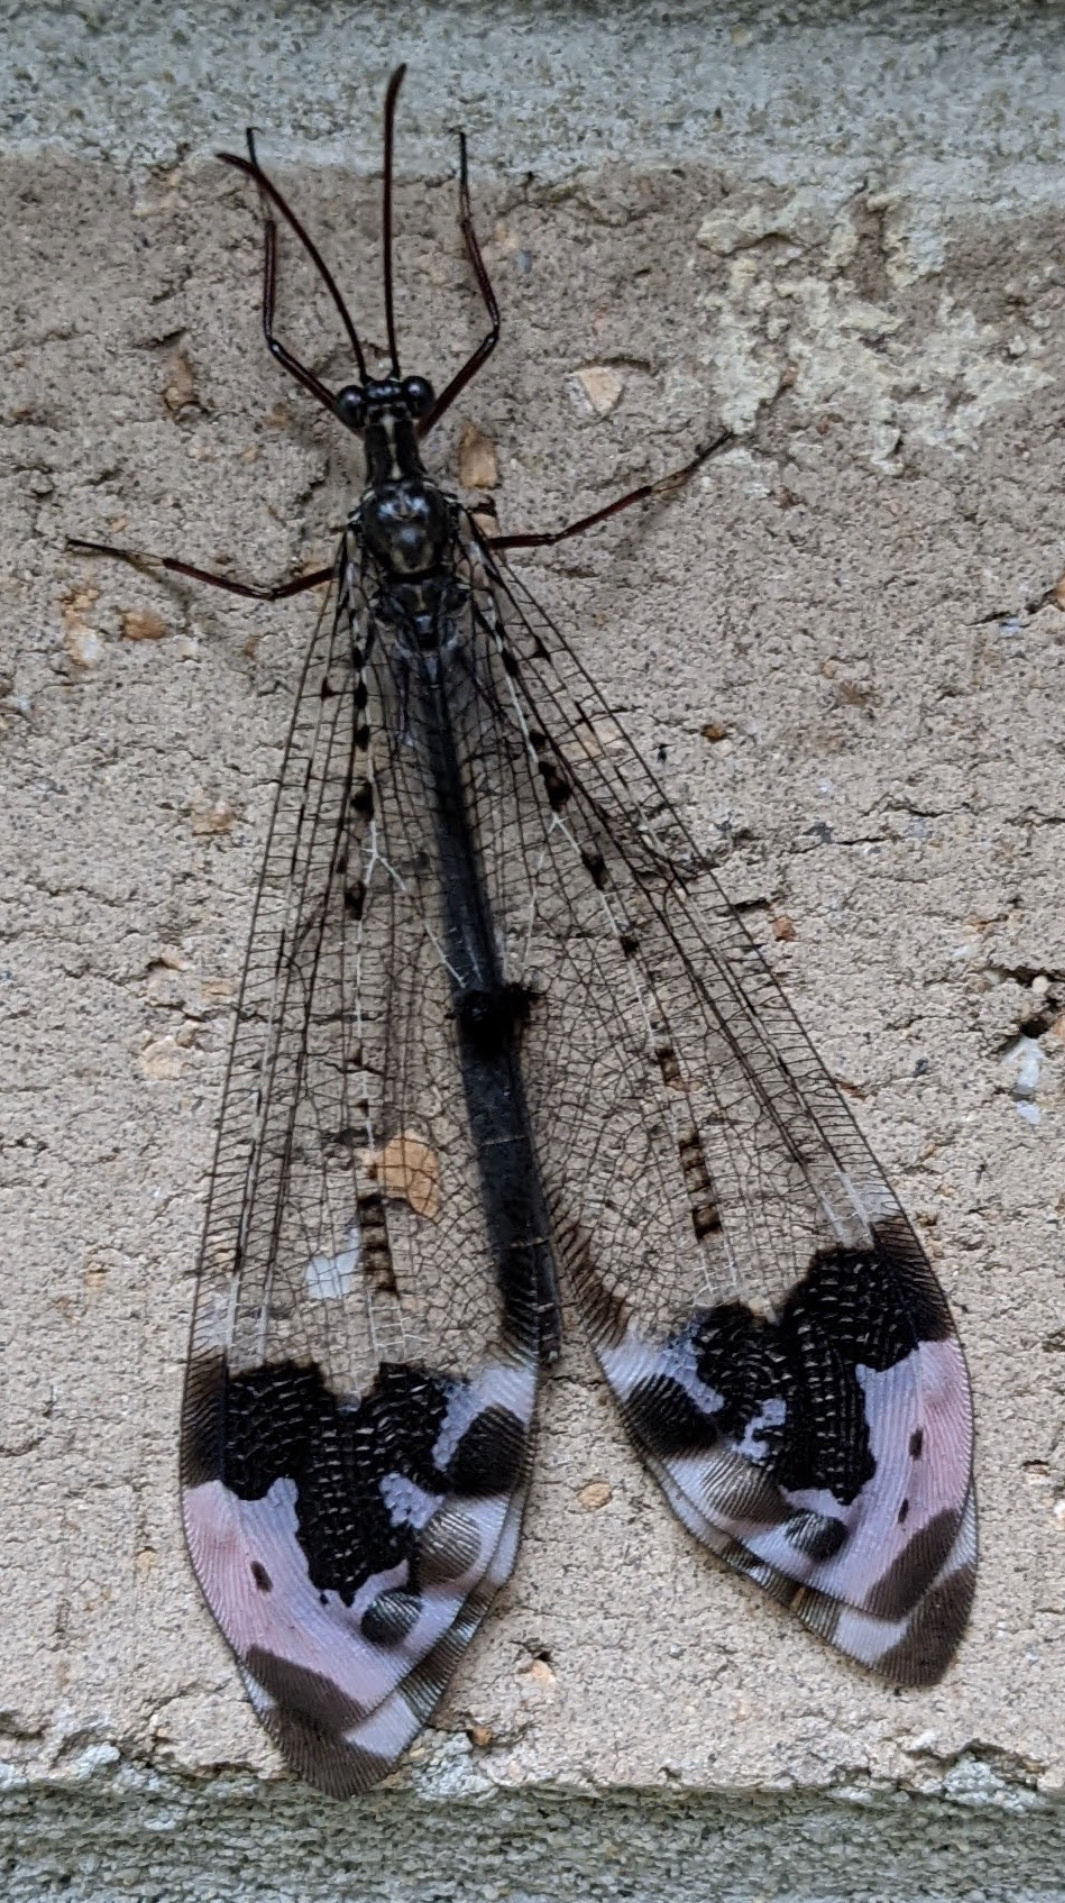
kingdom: Animalia
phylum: Arthropoda
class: Insecta
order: Neuroptera
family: Myrmeleontidae
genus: Glenurus
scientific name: Glenurus gratus
